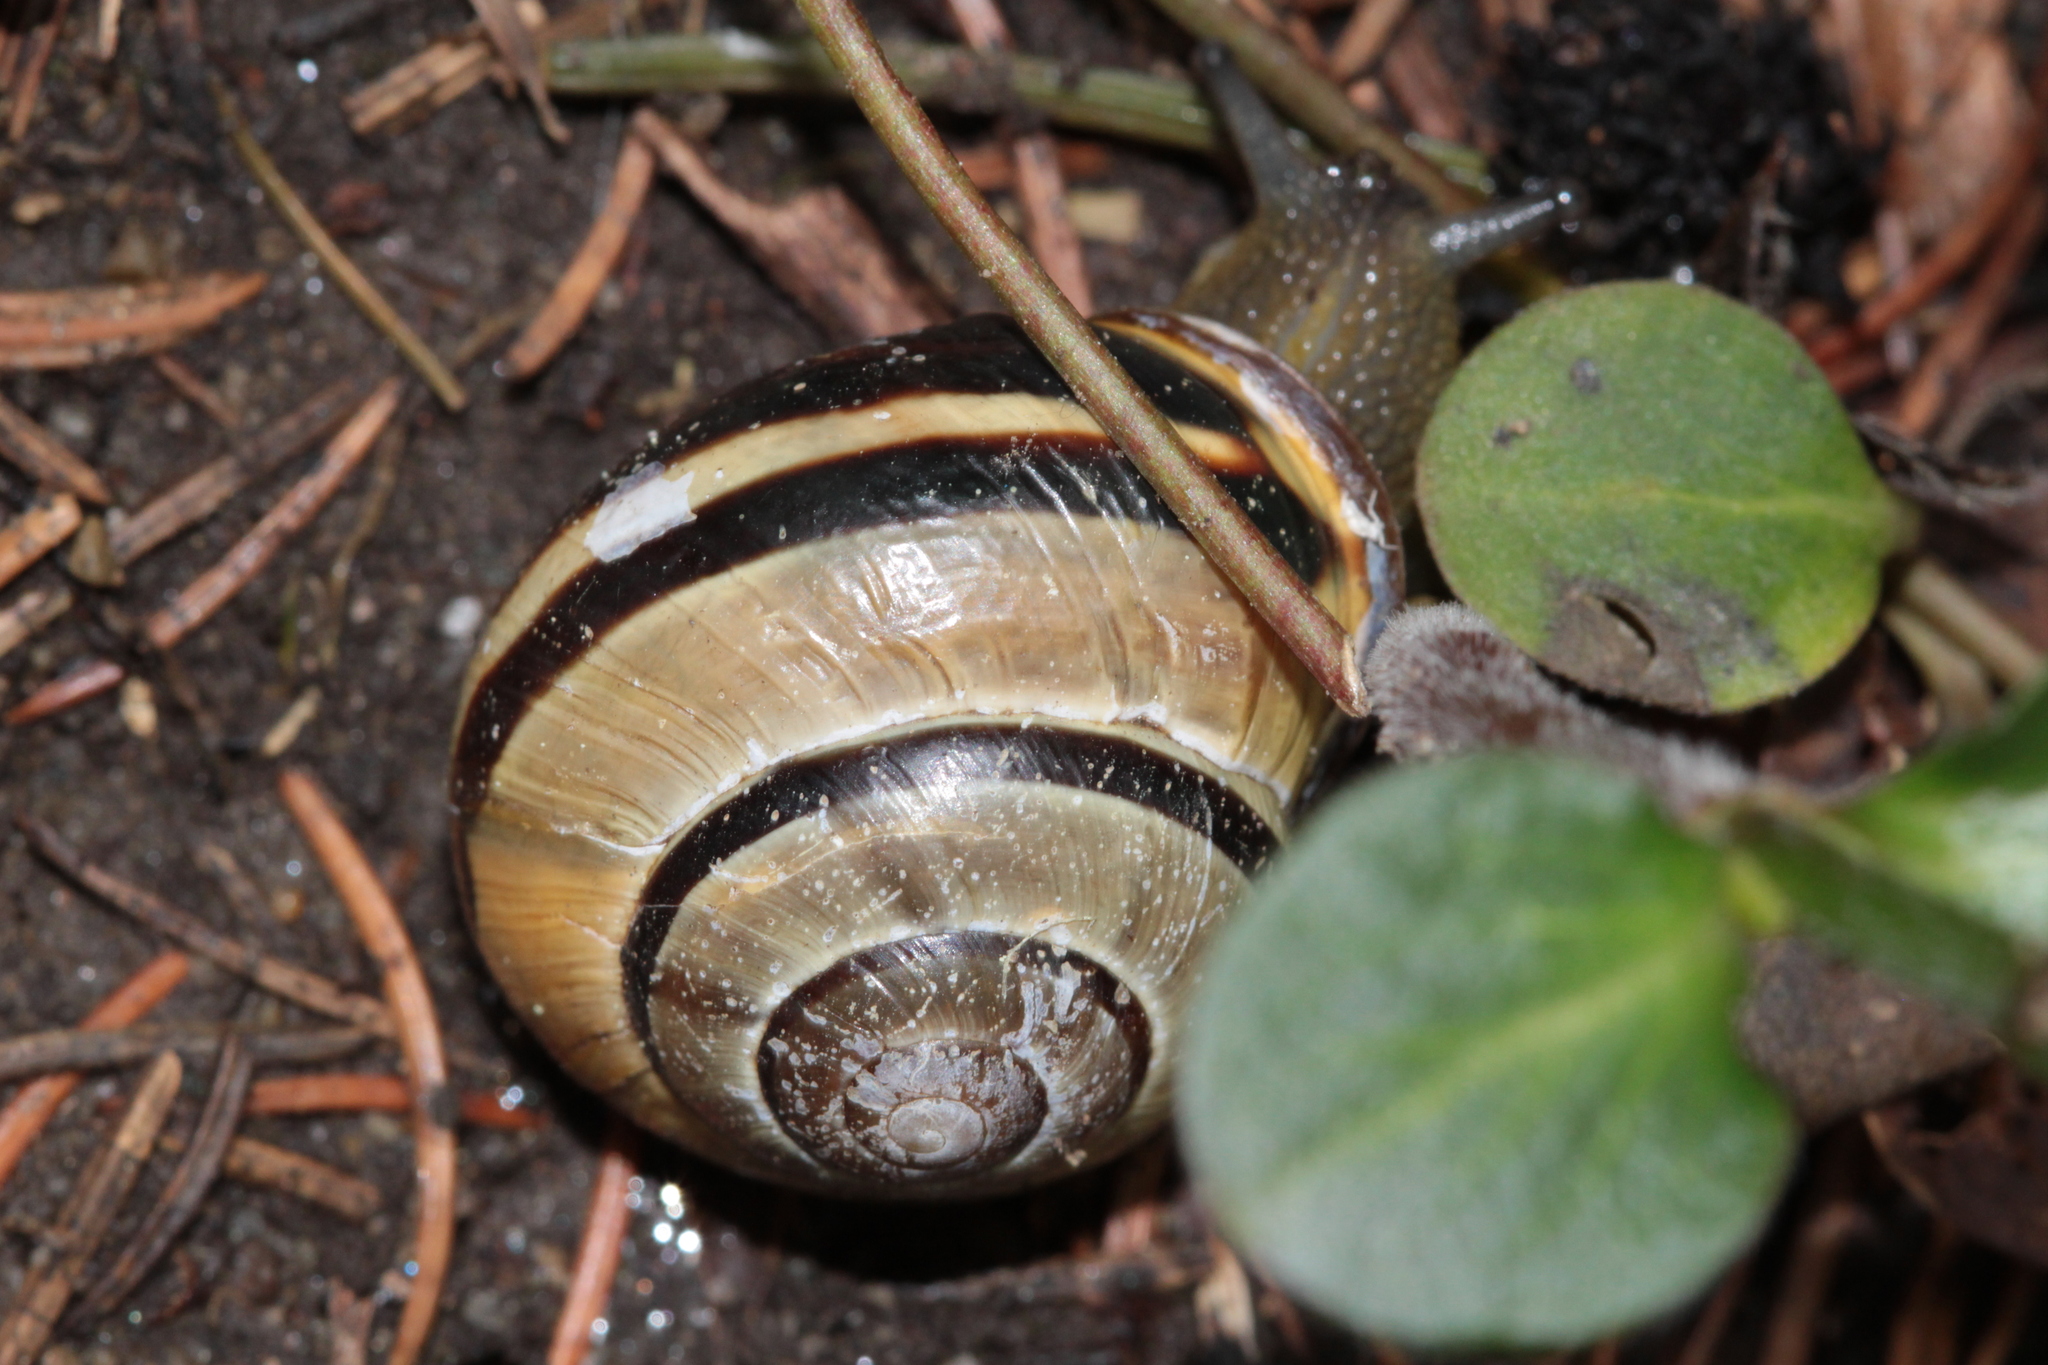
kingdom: Animalia
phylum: Mollusca
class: Gastropoda
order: Stylommatophora
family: Helicidae
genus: Cepaea
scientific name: Cepaea nemoralis
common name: Grovesnail
